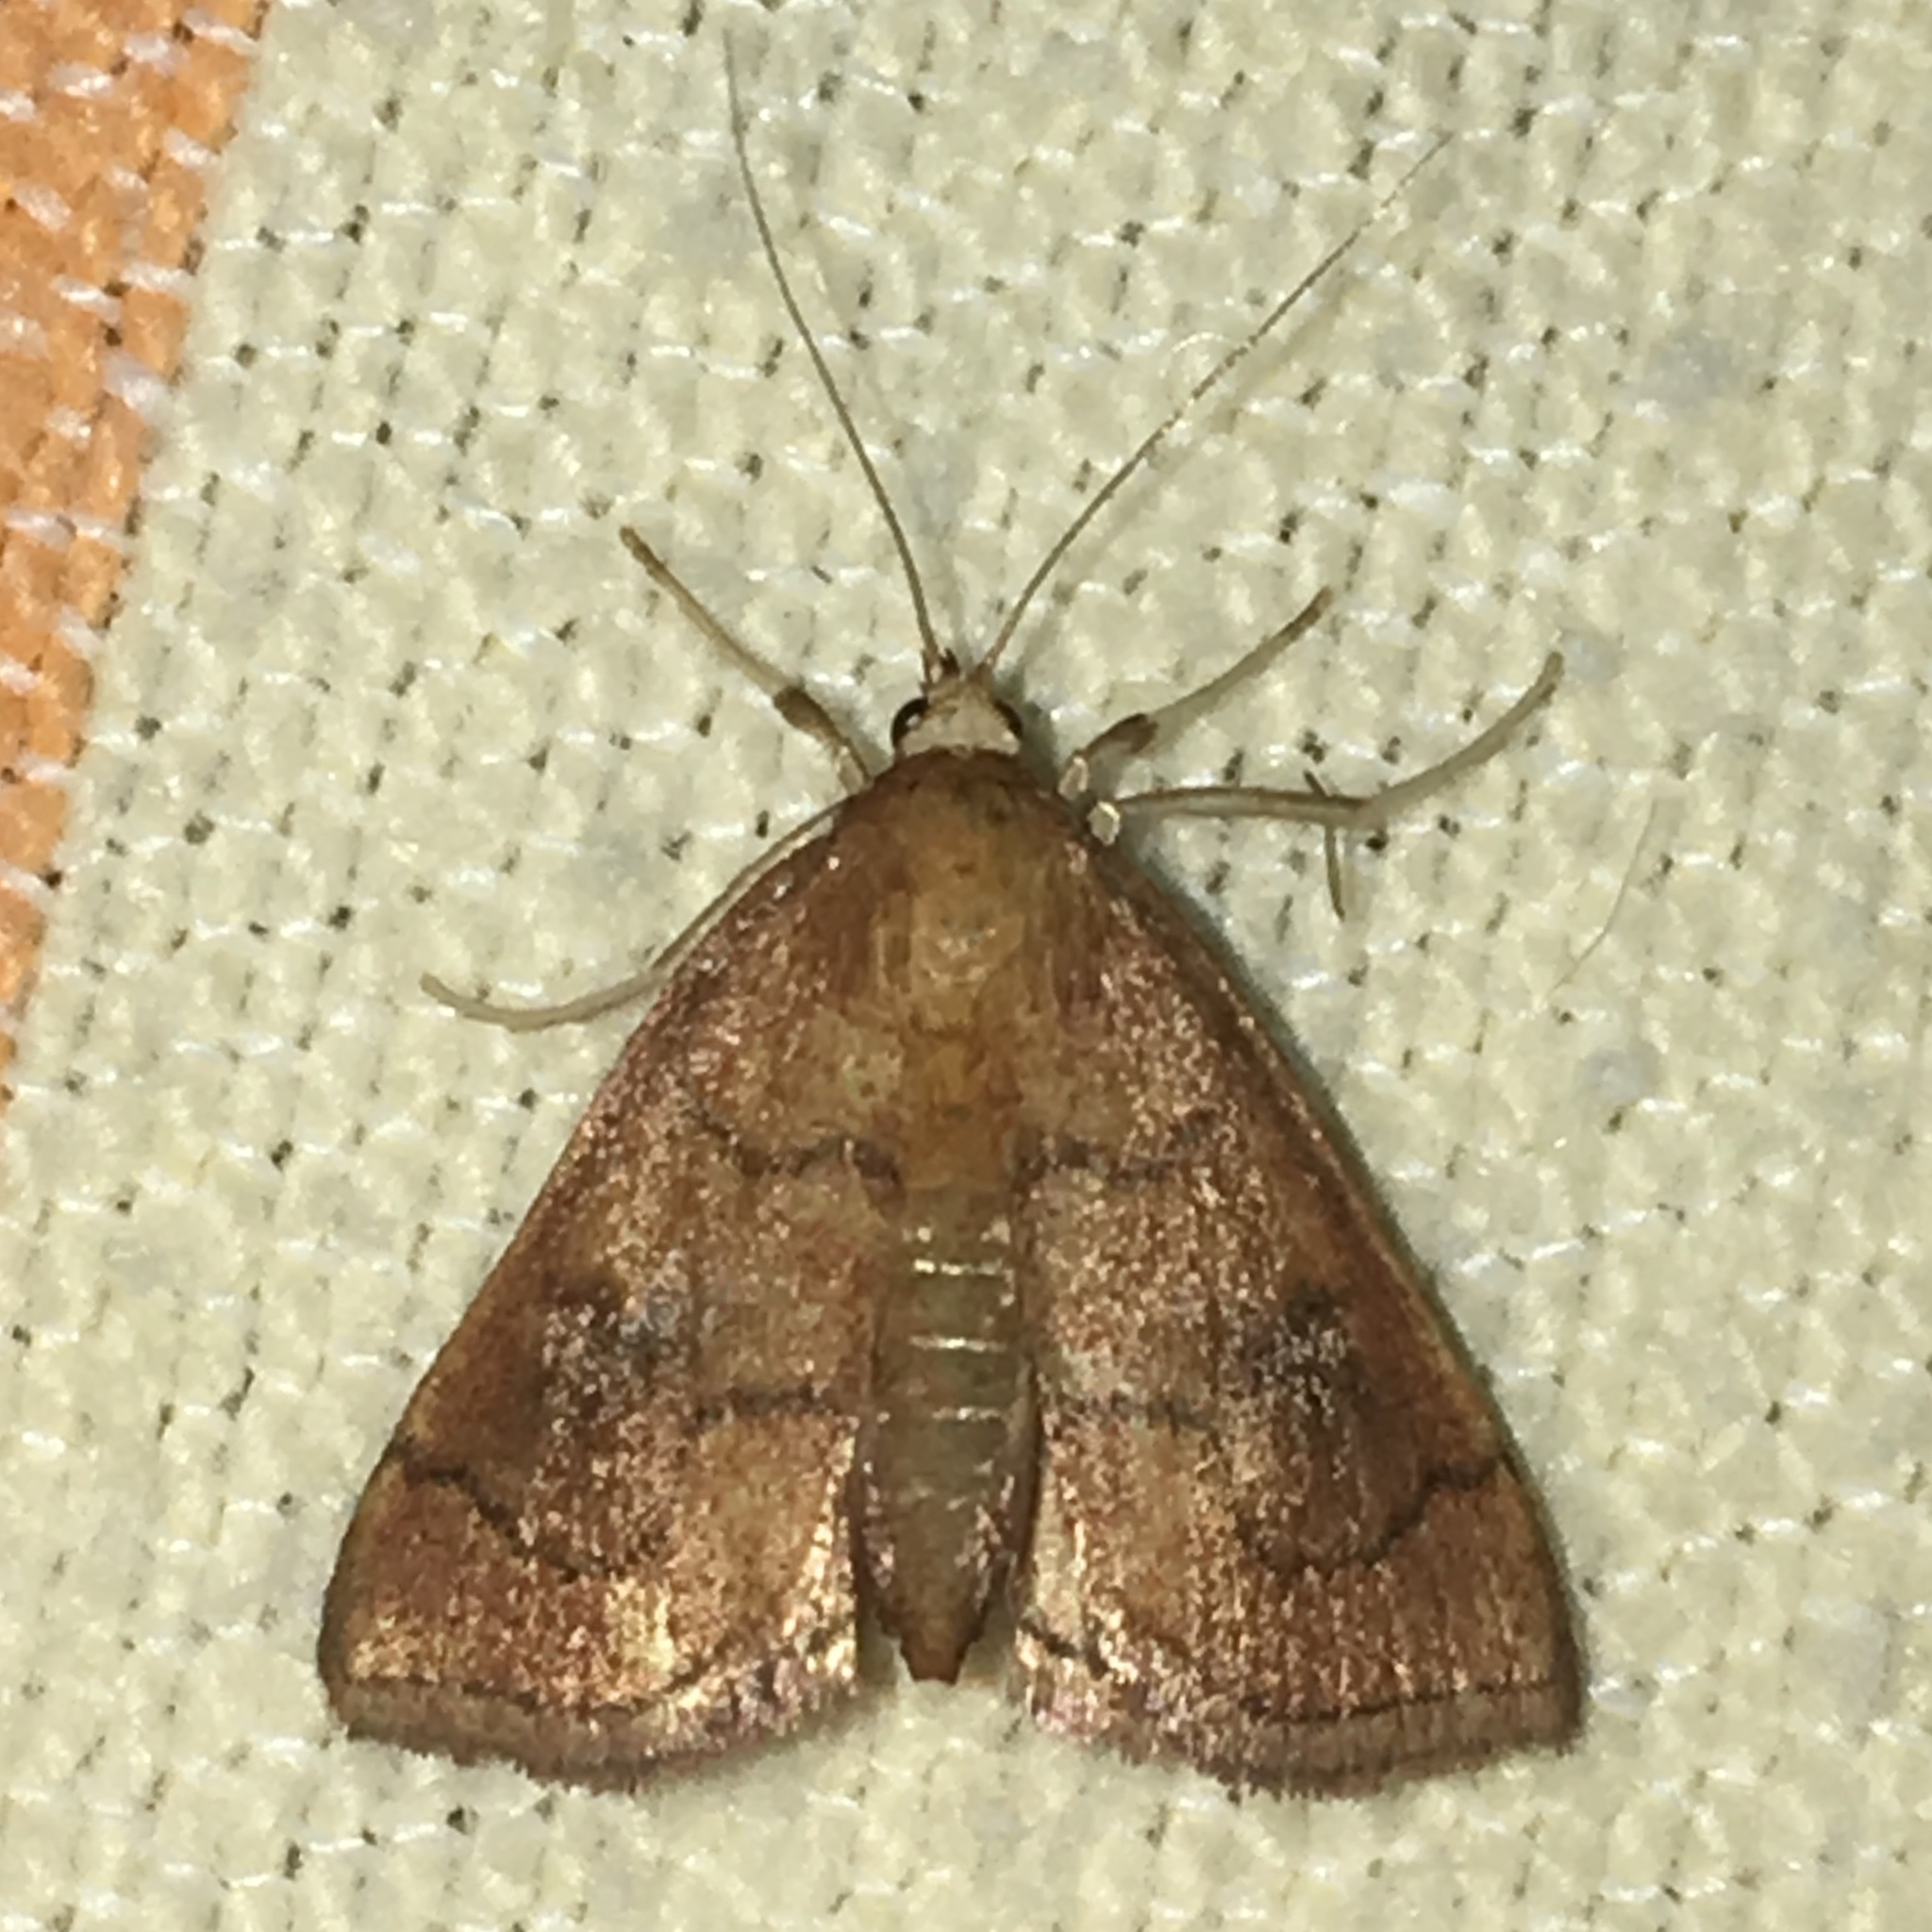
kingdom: Animalia
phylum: Arthropoda
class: Insecta
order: Lepidoptera
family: Crambidae
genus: Fumibotys
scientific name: Fumibotys fumalis
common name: Mint root borer moth
